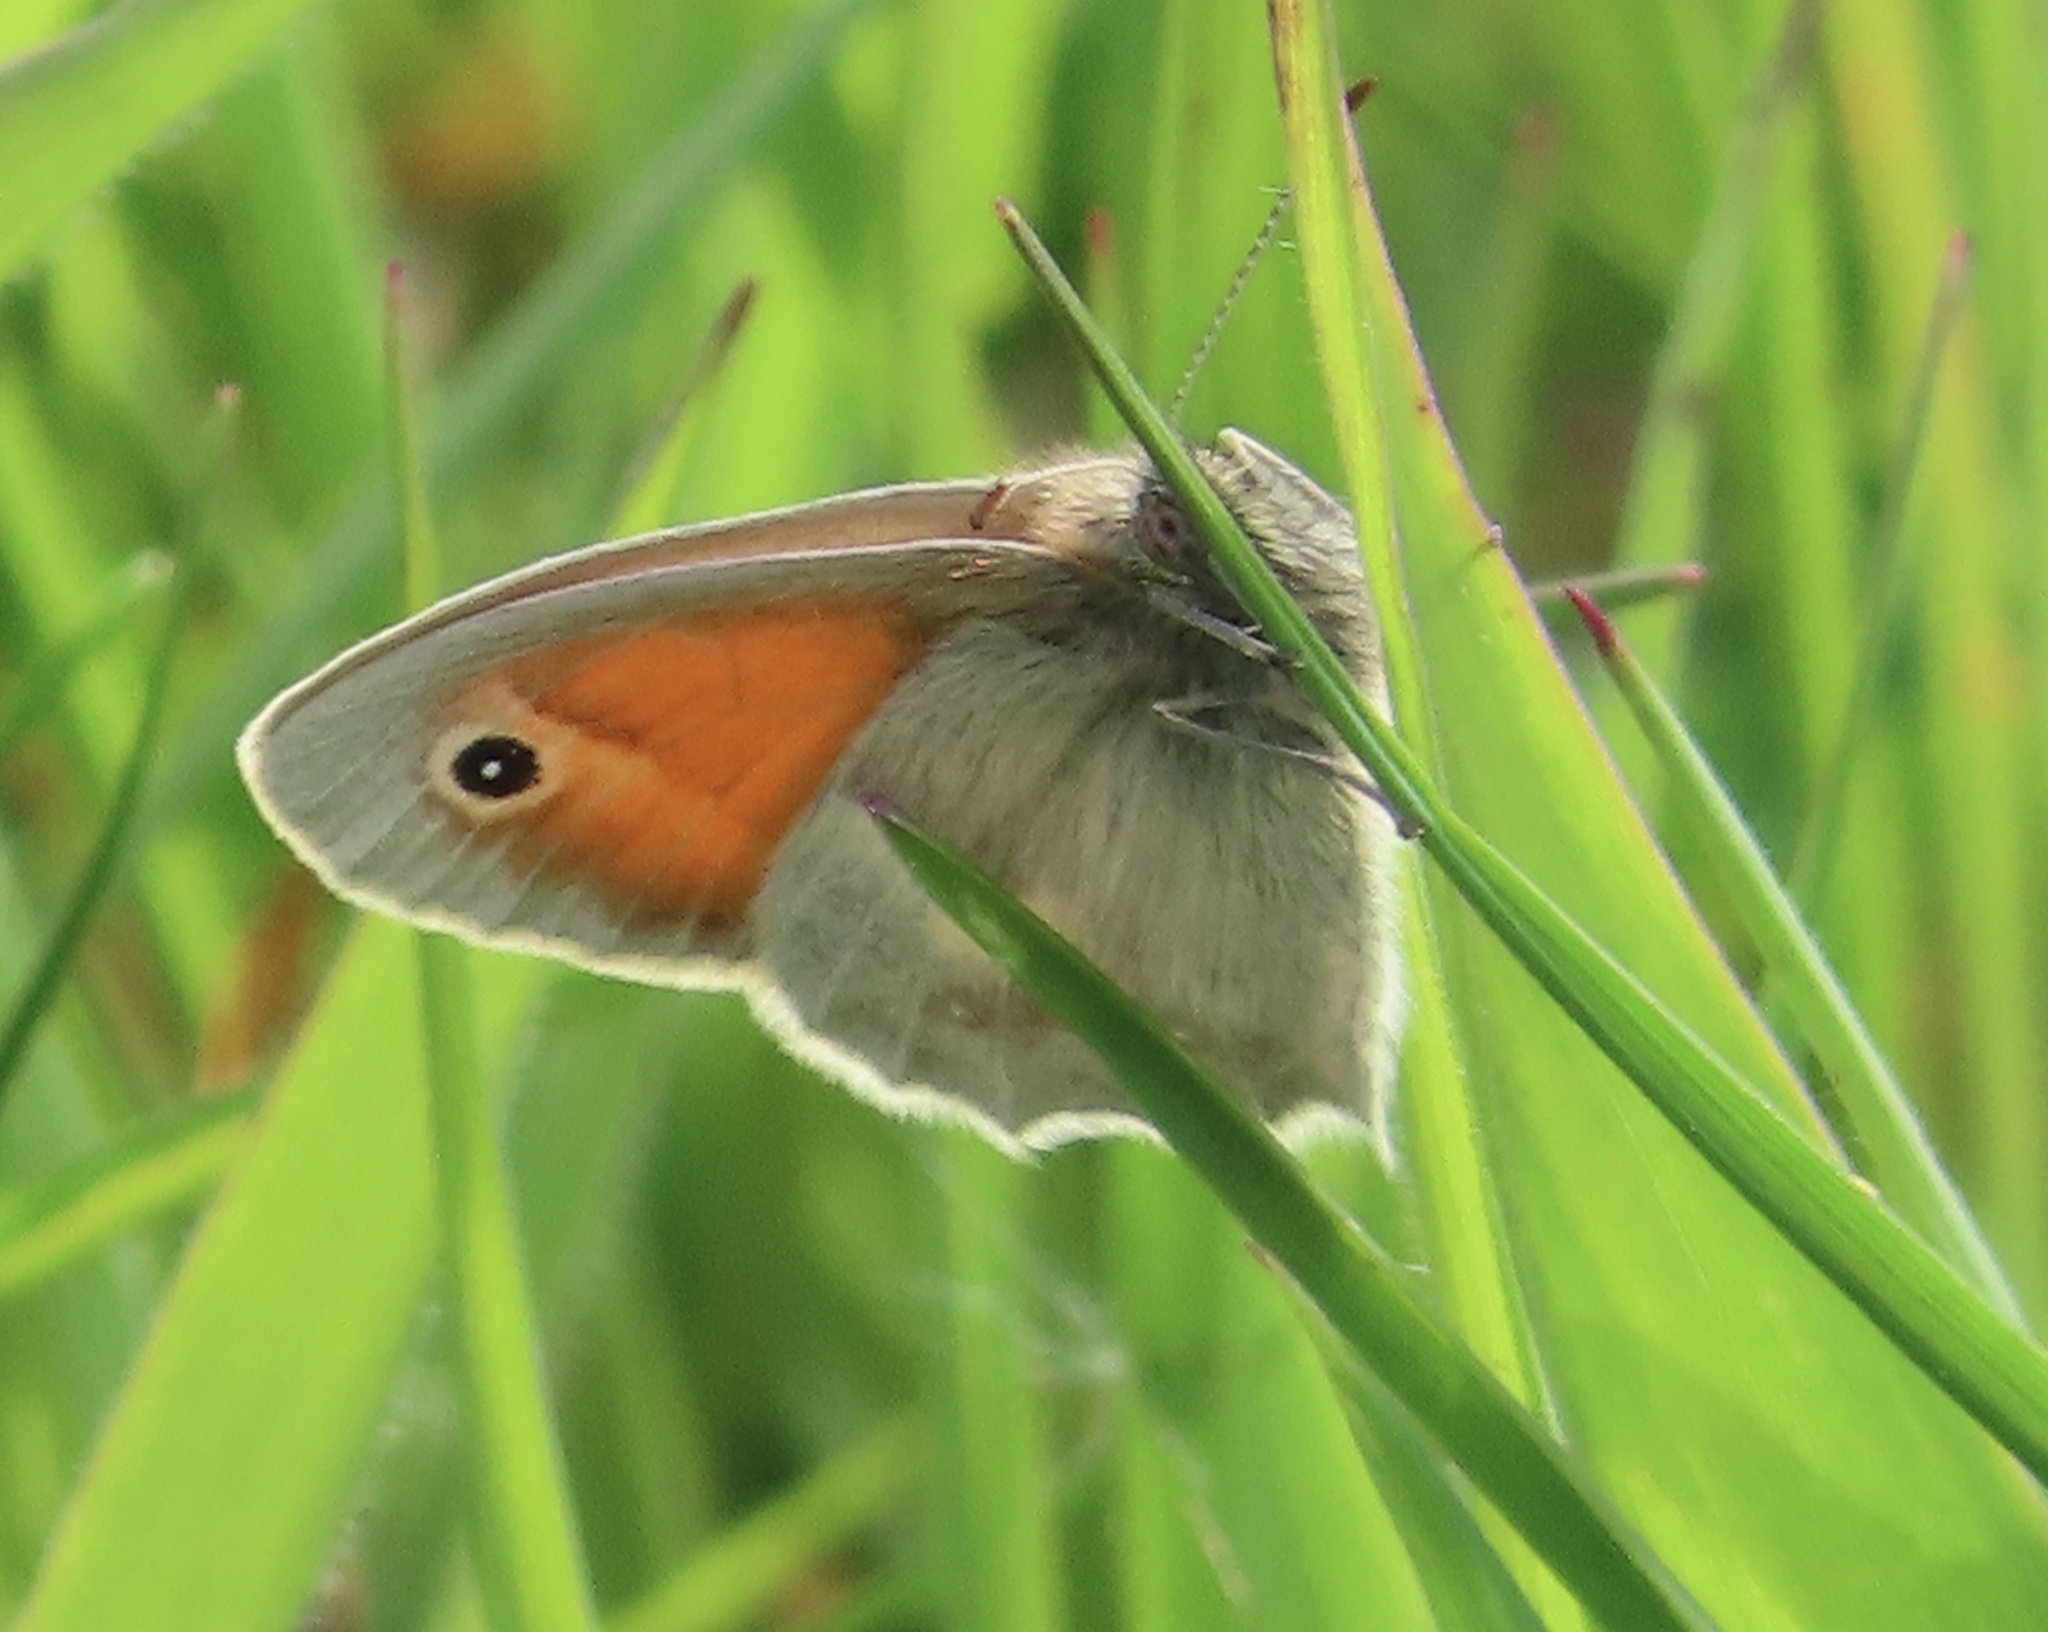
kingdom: Animalia
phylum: Arthropoda
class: Insecta
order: Lepidoptera
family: Nymphalidae
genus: Coenonympha
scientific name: Coenonympha pamphilus
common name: Small heath
